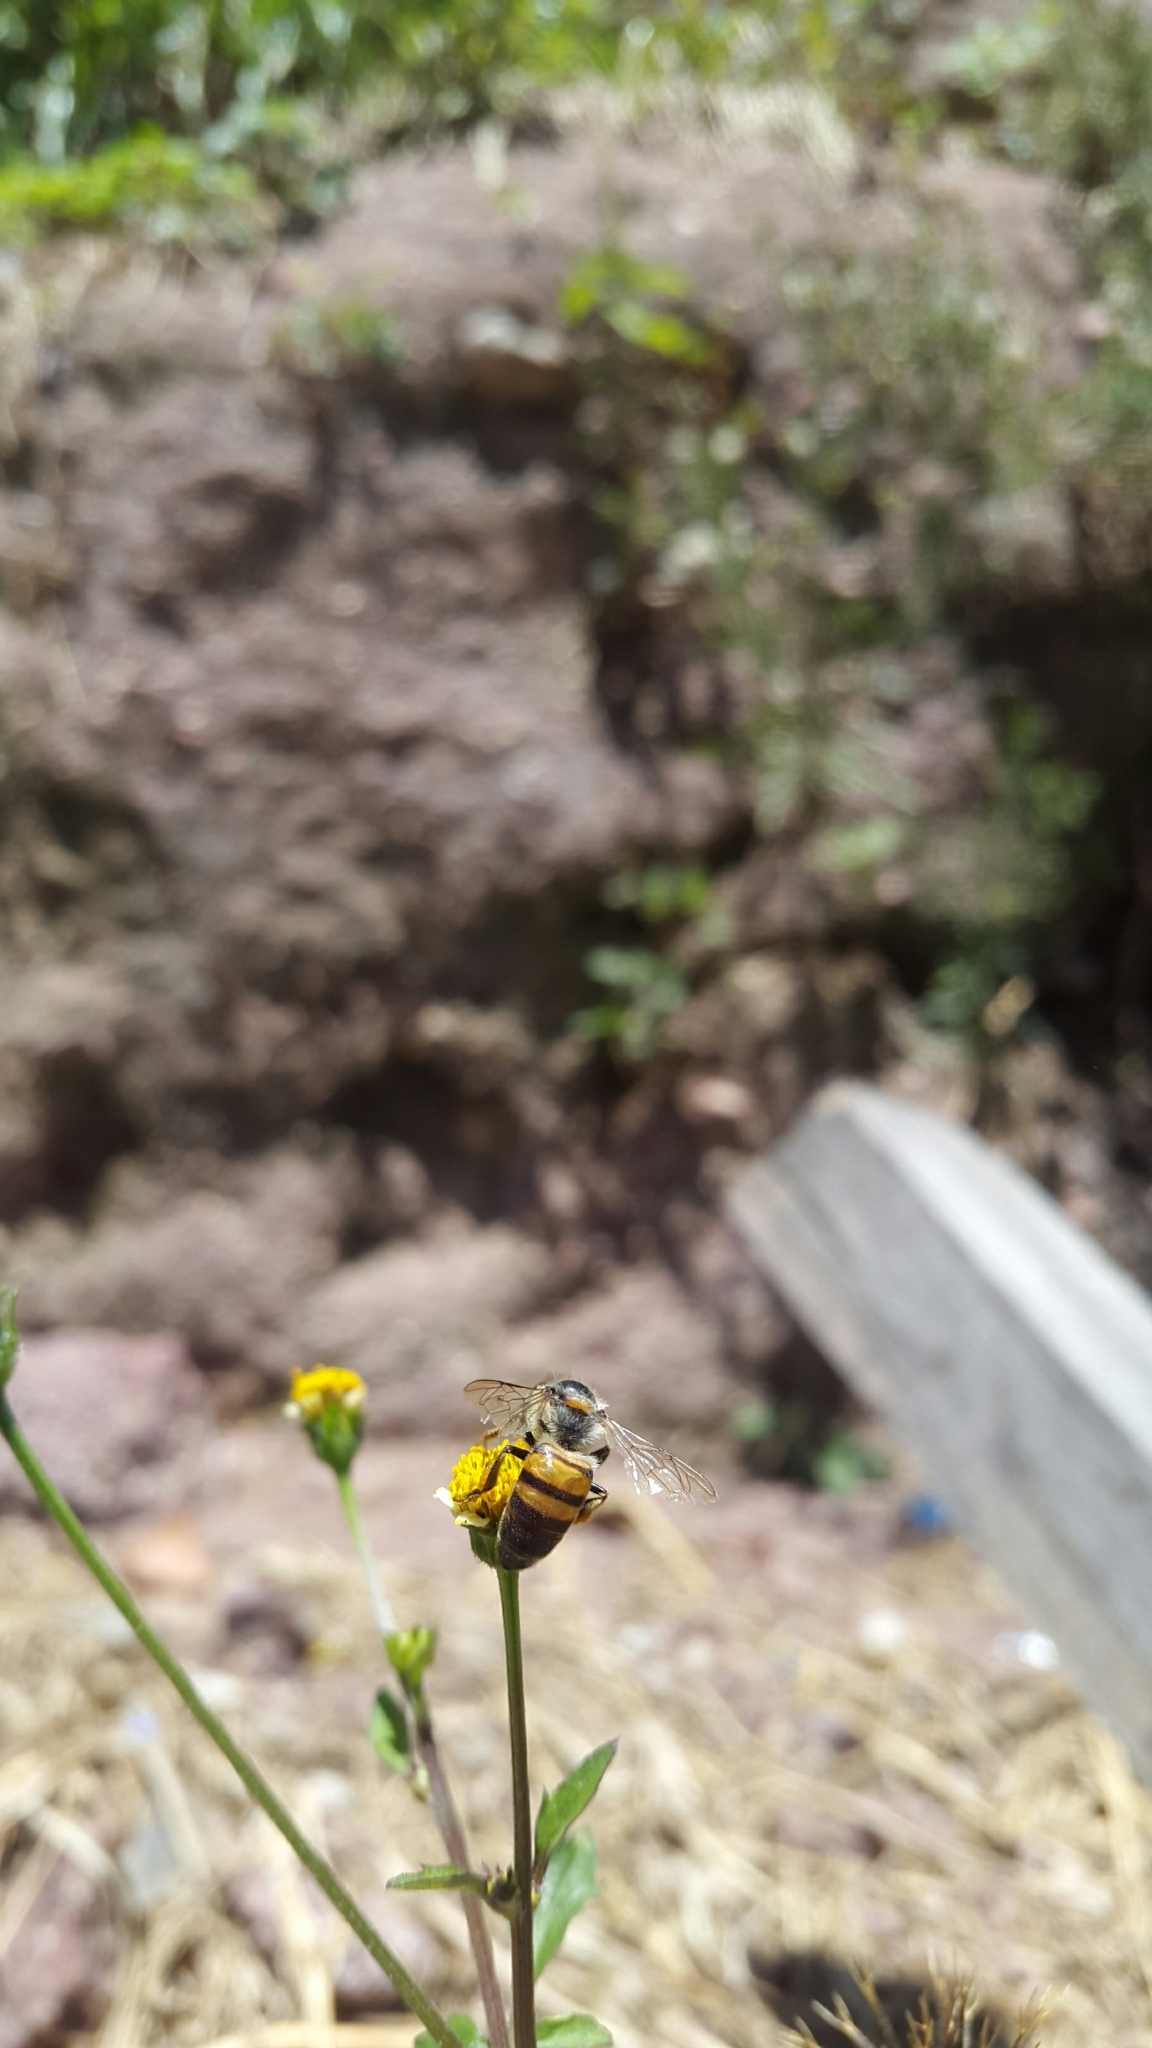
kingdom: Animalia
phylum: Arthropoda
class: Insecta
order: Hymenoptera
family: Apidae
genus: Apis
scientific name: Apis mellifera
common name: Honey bee
